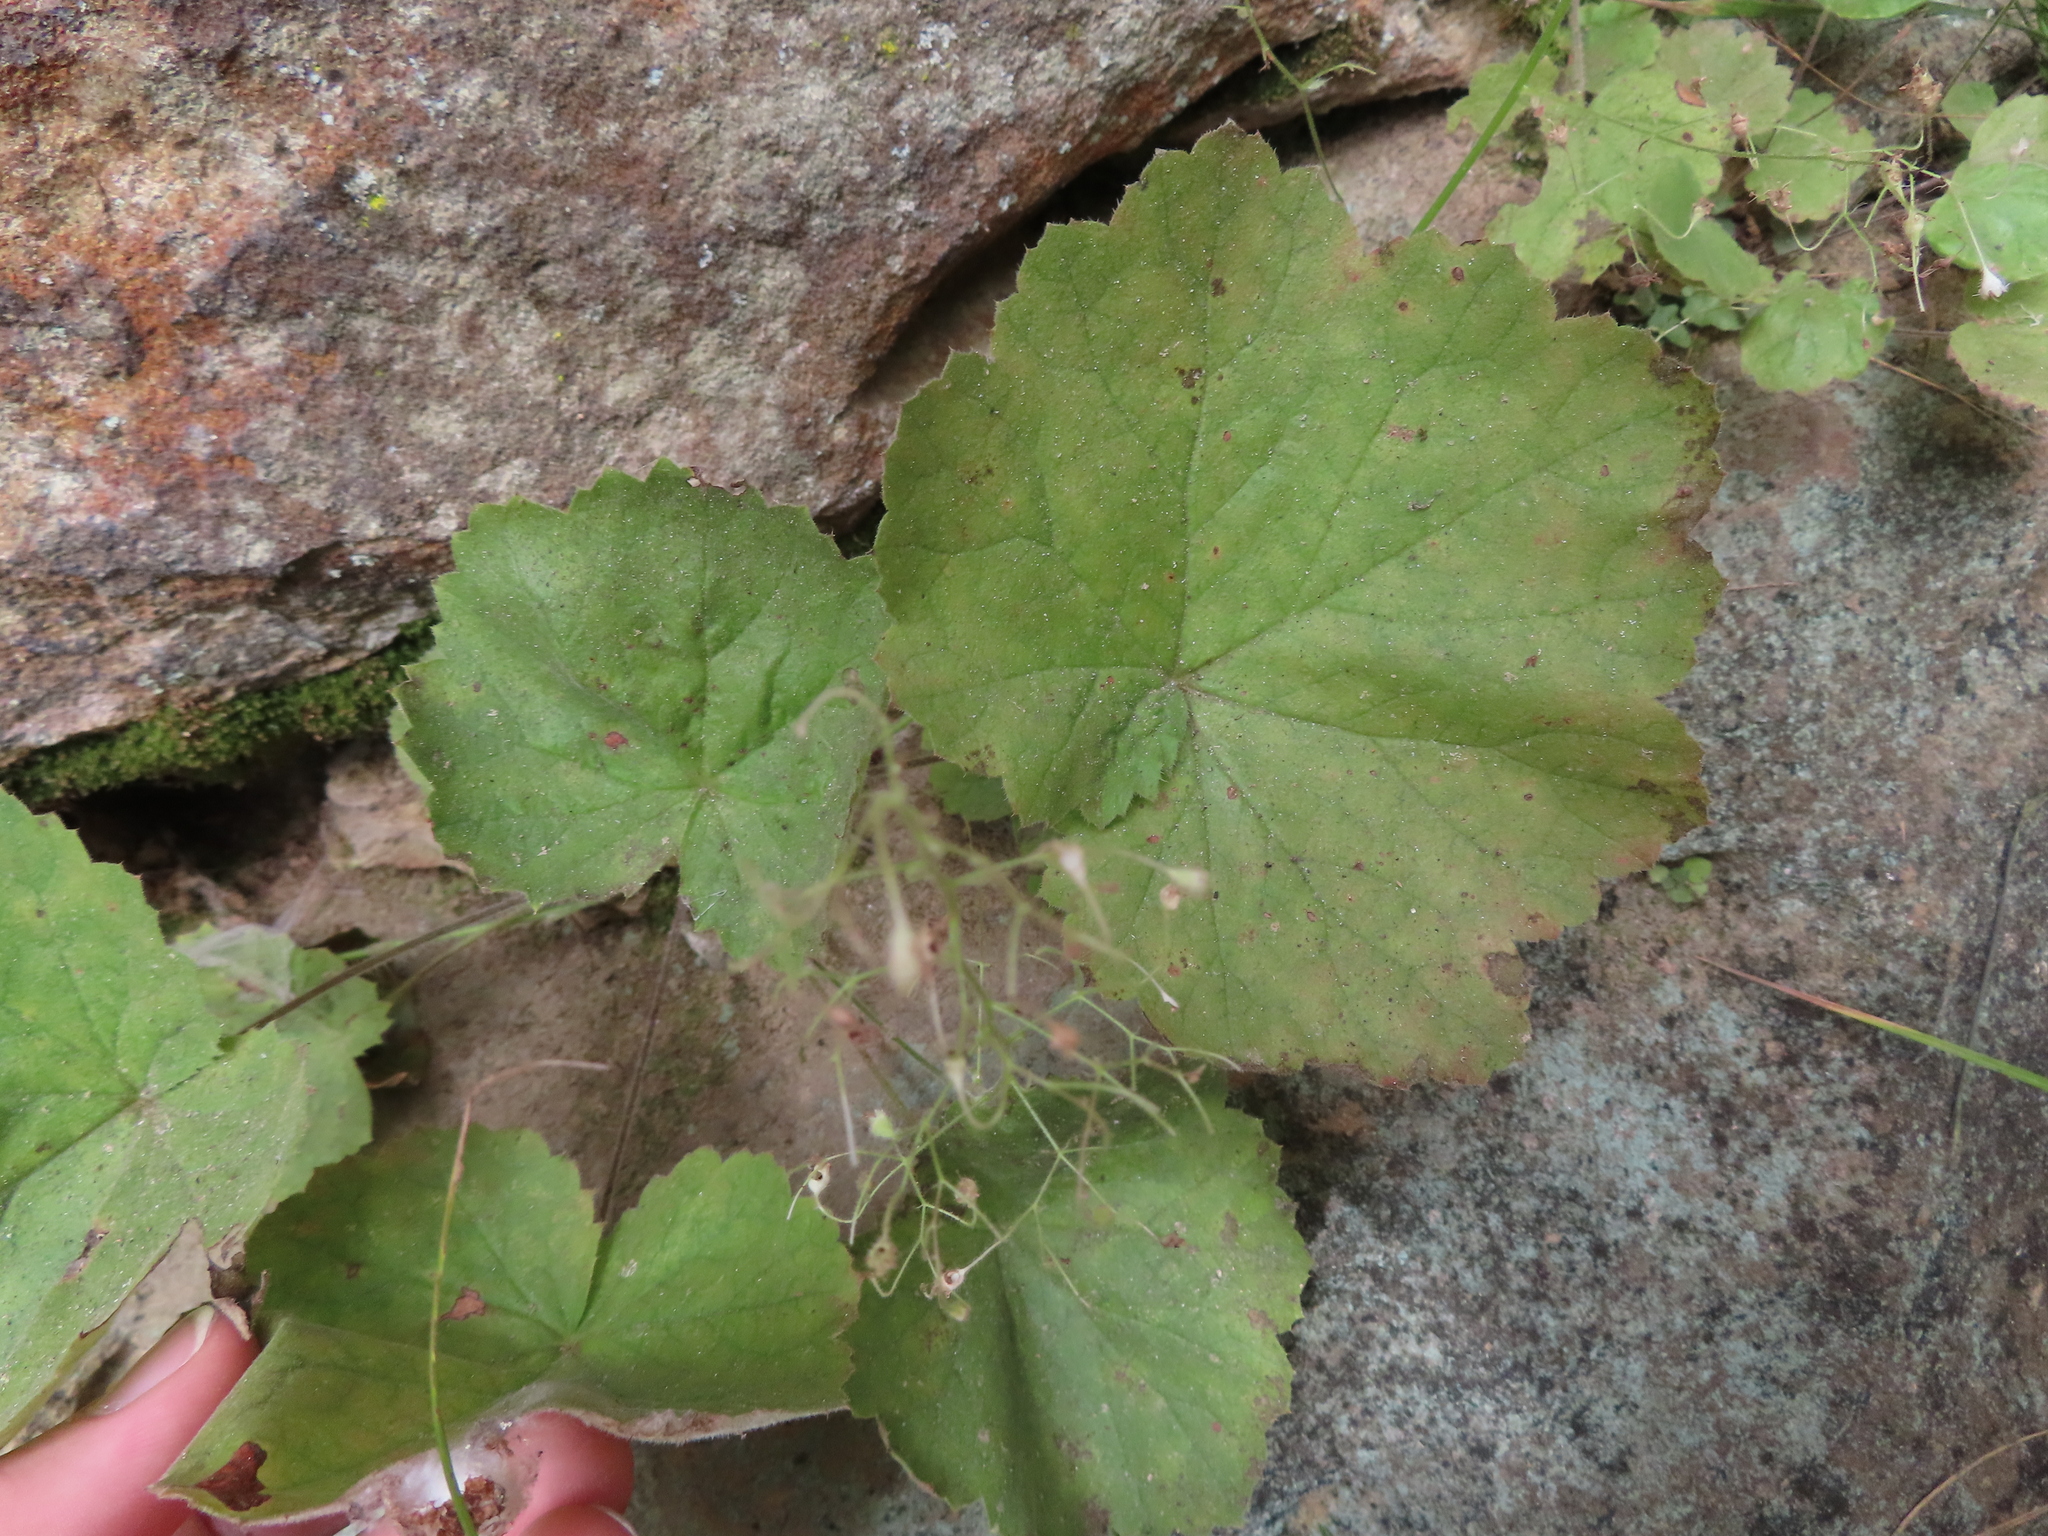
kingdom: Plantae
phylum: Tracheophyta
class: Magnoliopsida
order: Saxifragales
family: Saxifragaceae
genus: Heuchera
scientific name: Heuchera parviflora
